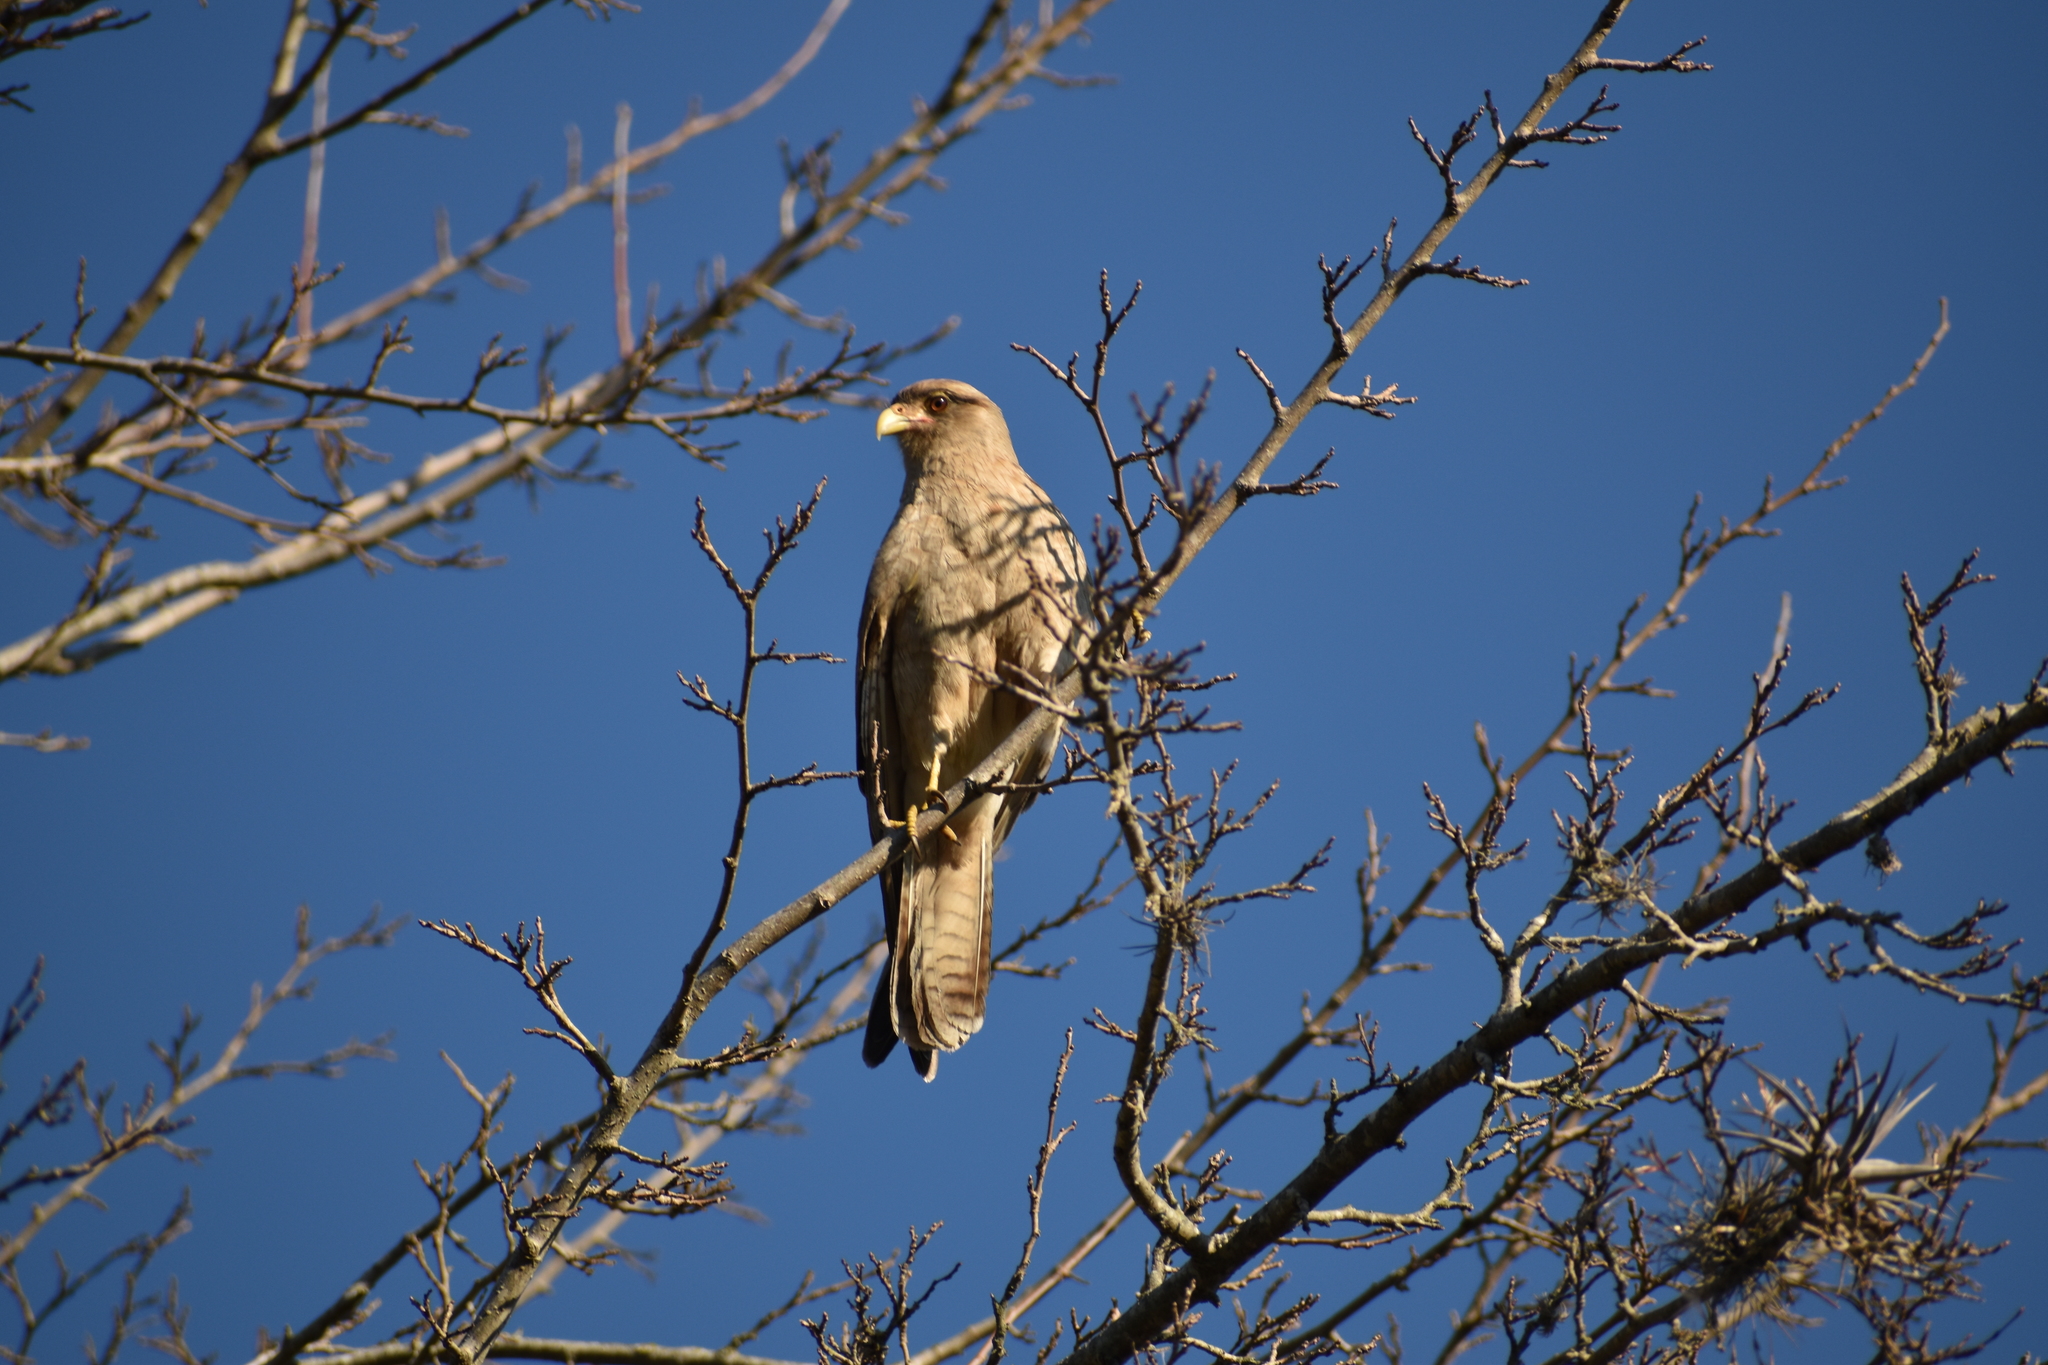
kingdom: Animalia
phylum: Chordata
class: Aves
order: Falconiformes
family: Falconidae
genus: Daptrius
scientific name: Daptrius
